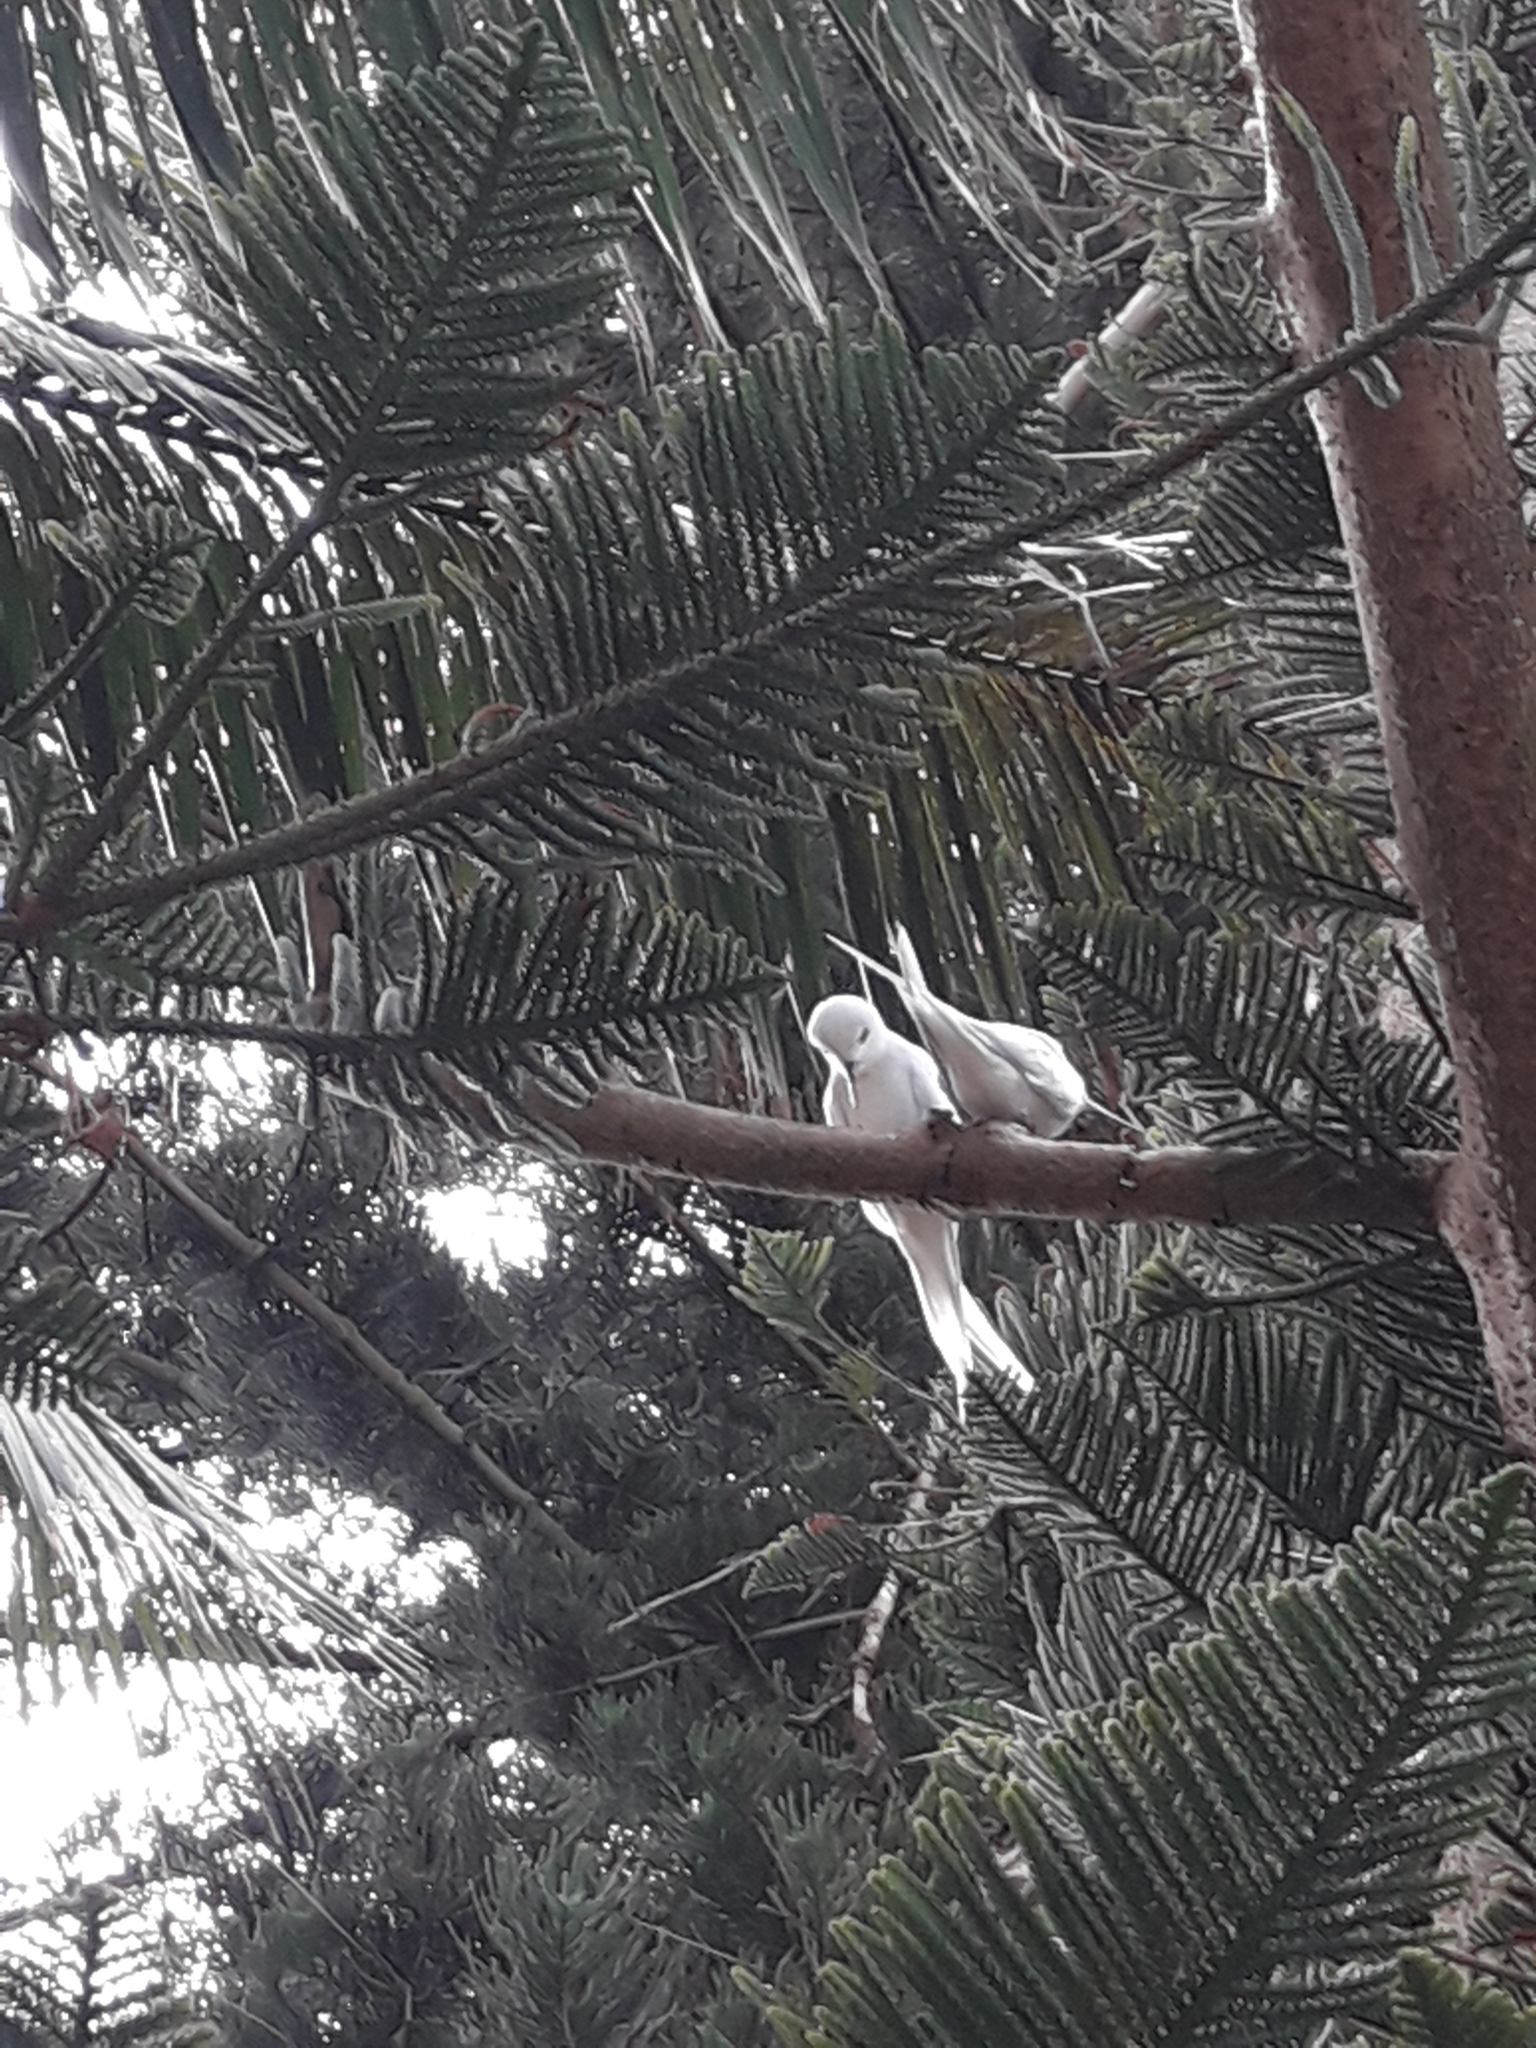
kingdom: Animalia
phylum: Chordata
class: Aves
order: Charadriiformes
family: Laridae
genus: Gygis
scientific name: Gygis alba
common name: White tern
